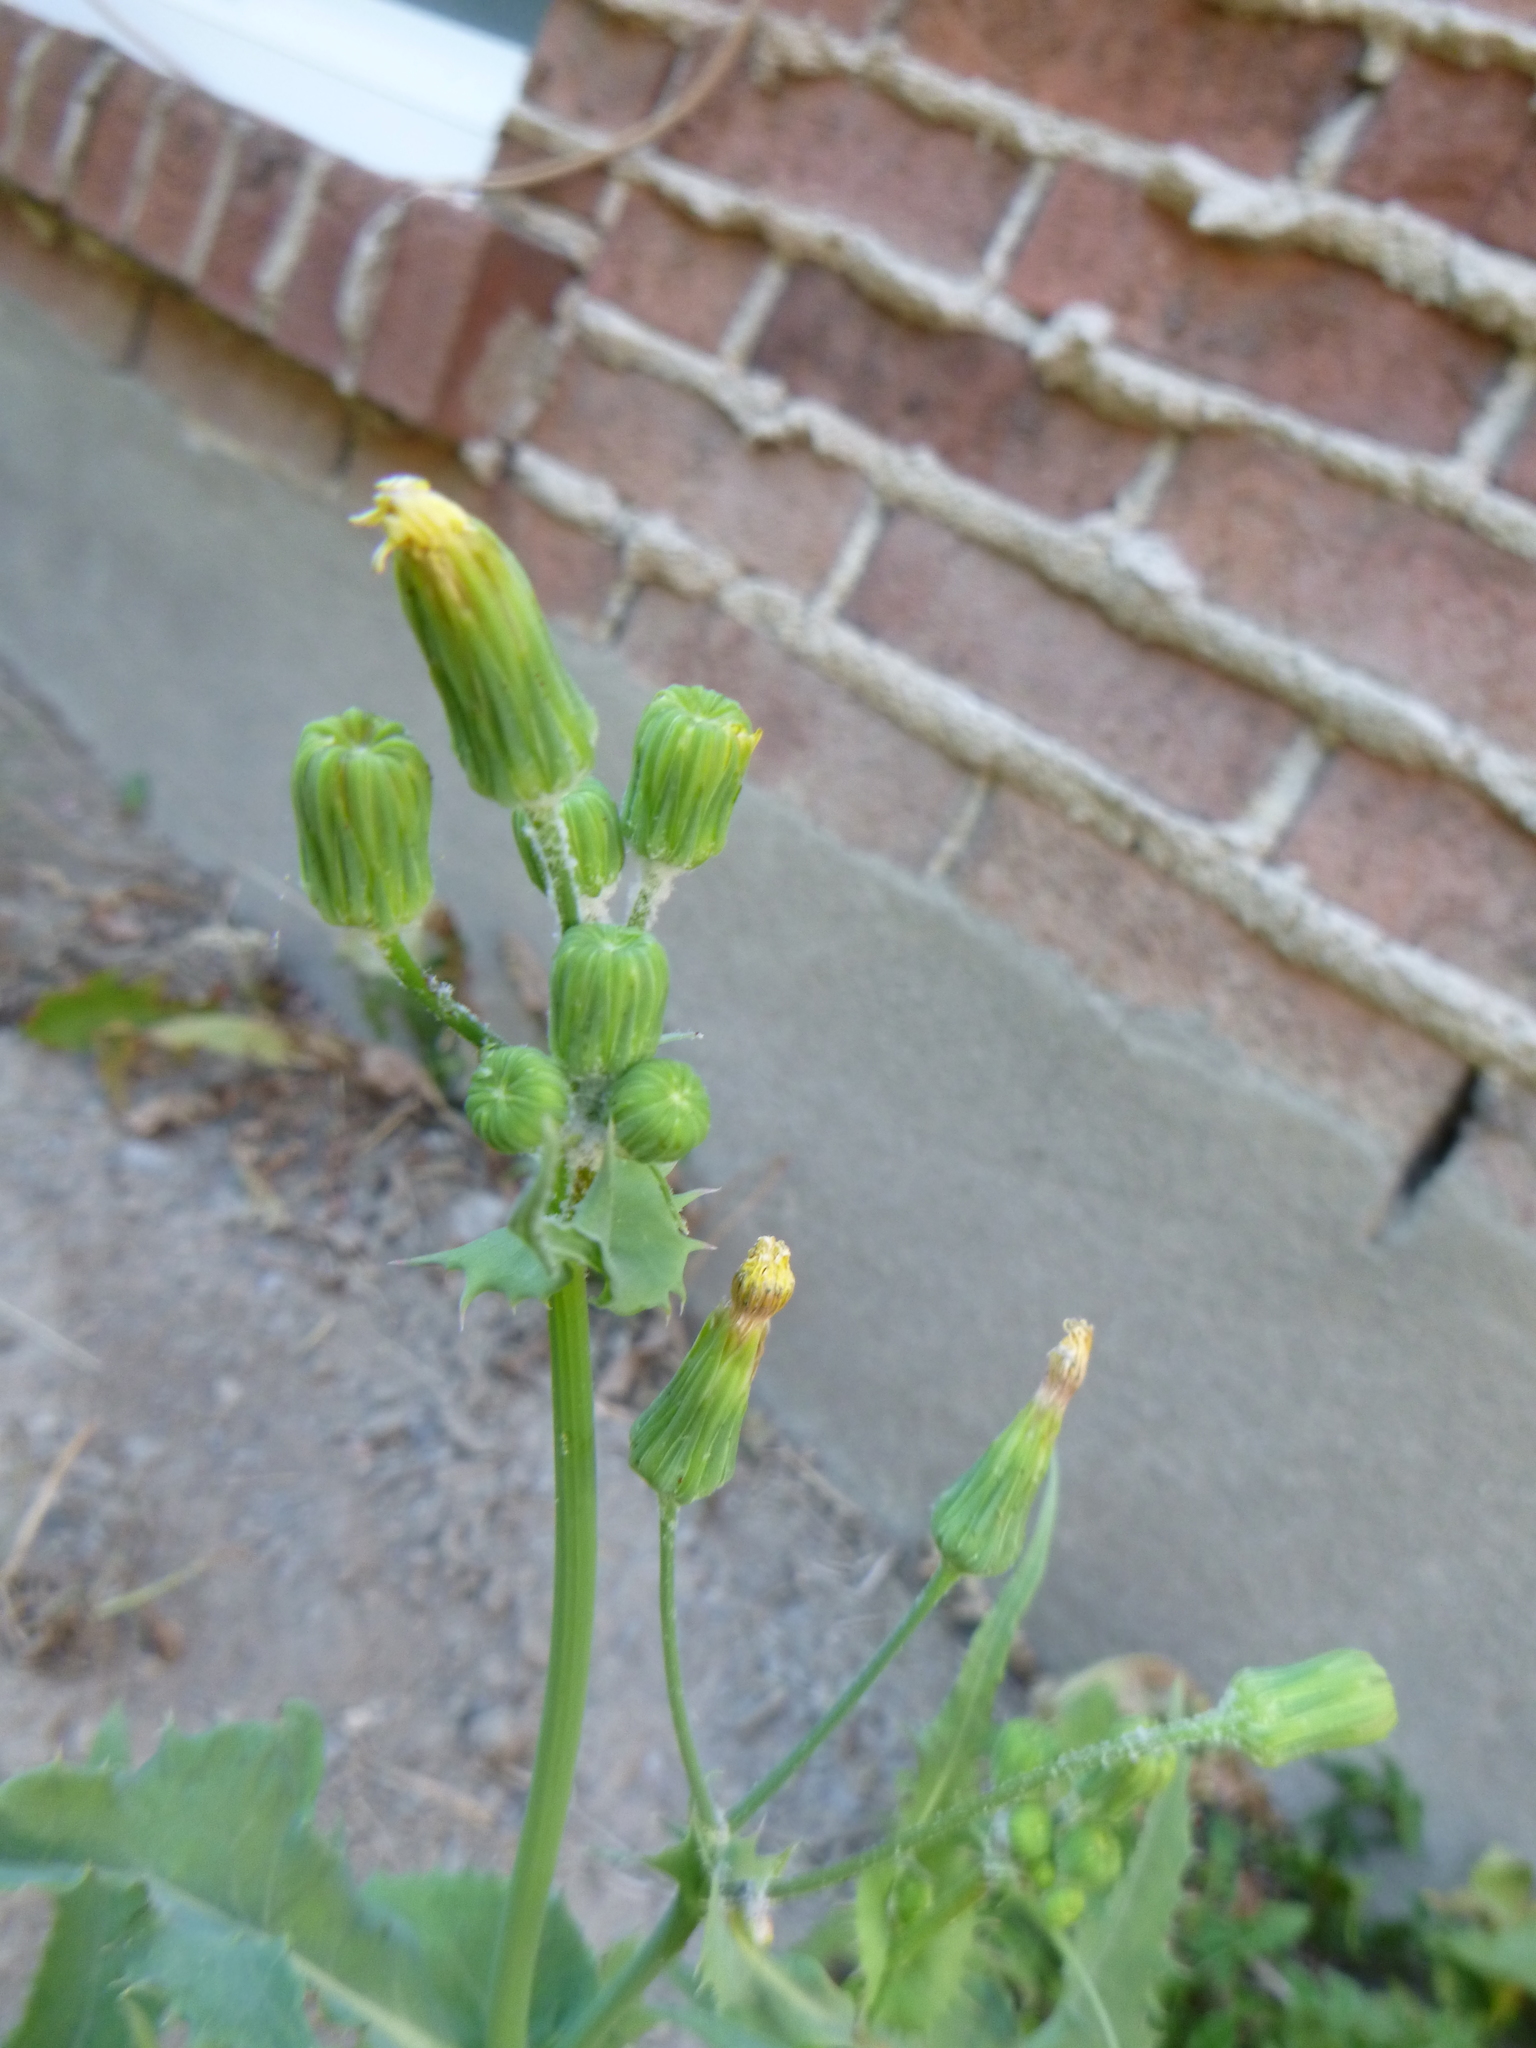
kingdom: Plantae
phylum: Tracheophyta
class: Magnoliopsida
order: Asterales
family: Asteraceae
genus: Sonchus
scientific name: Sonchus oleraceus
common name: Common sowthistle
